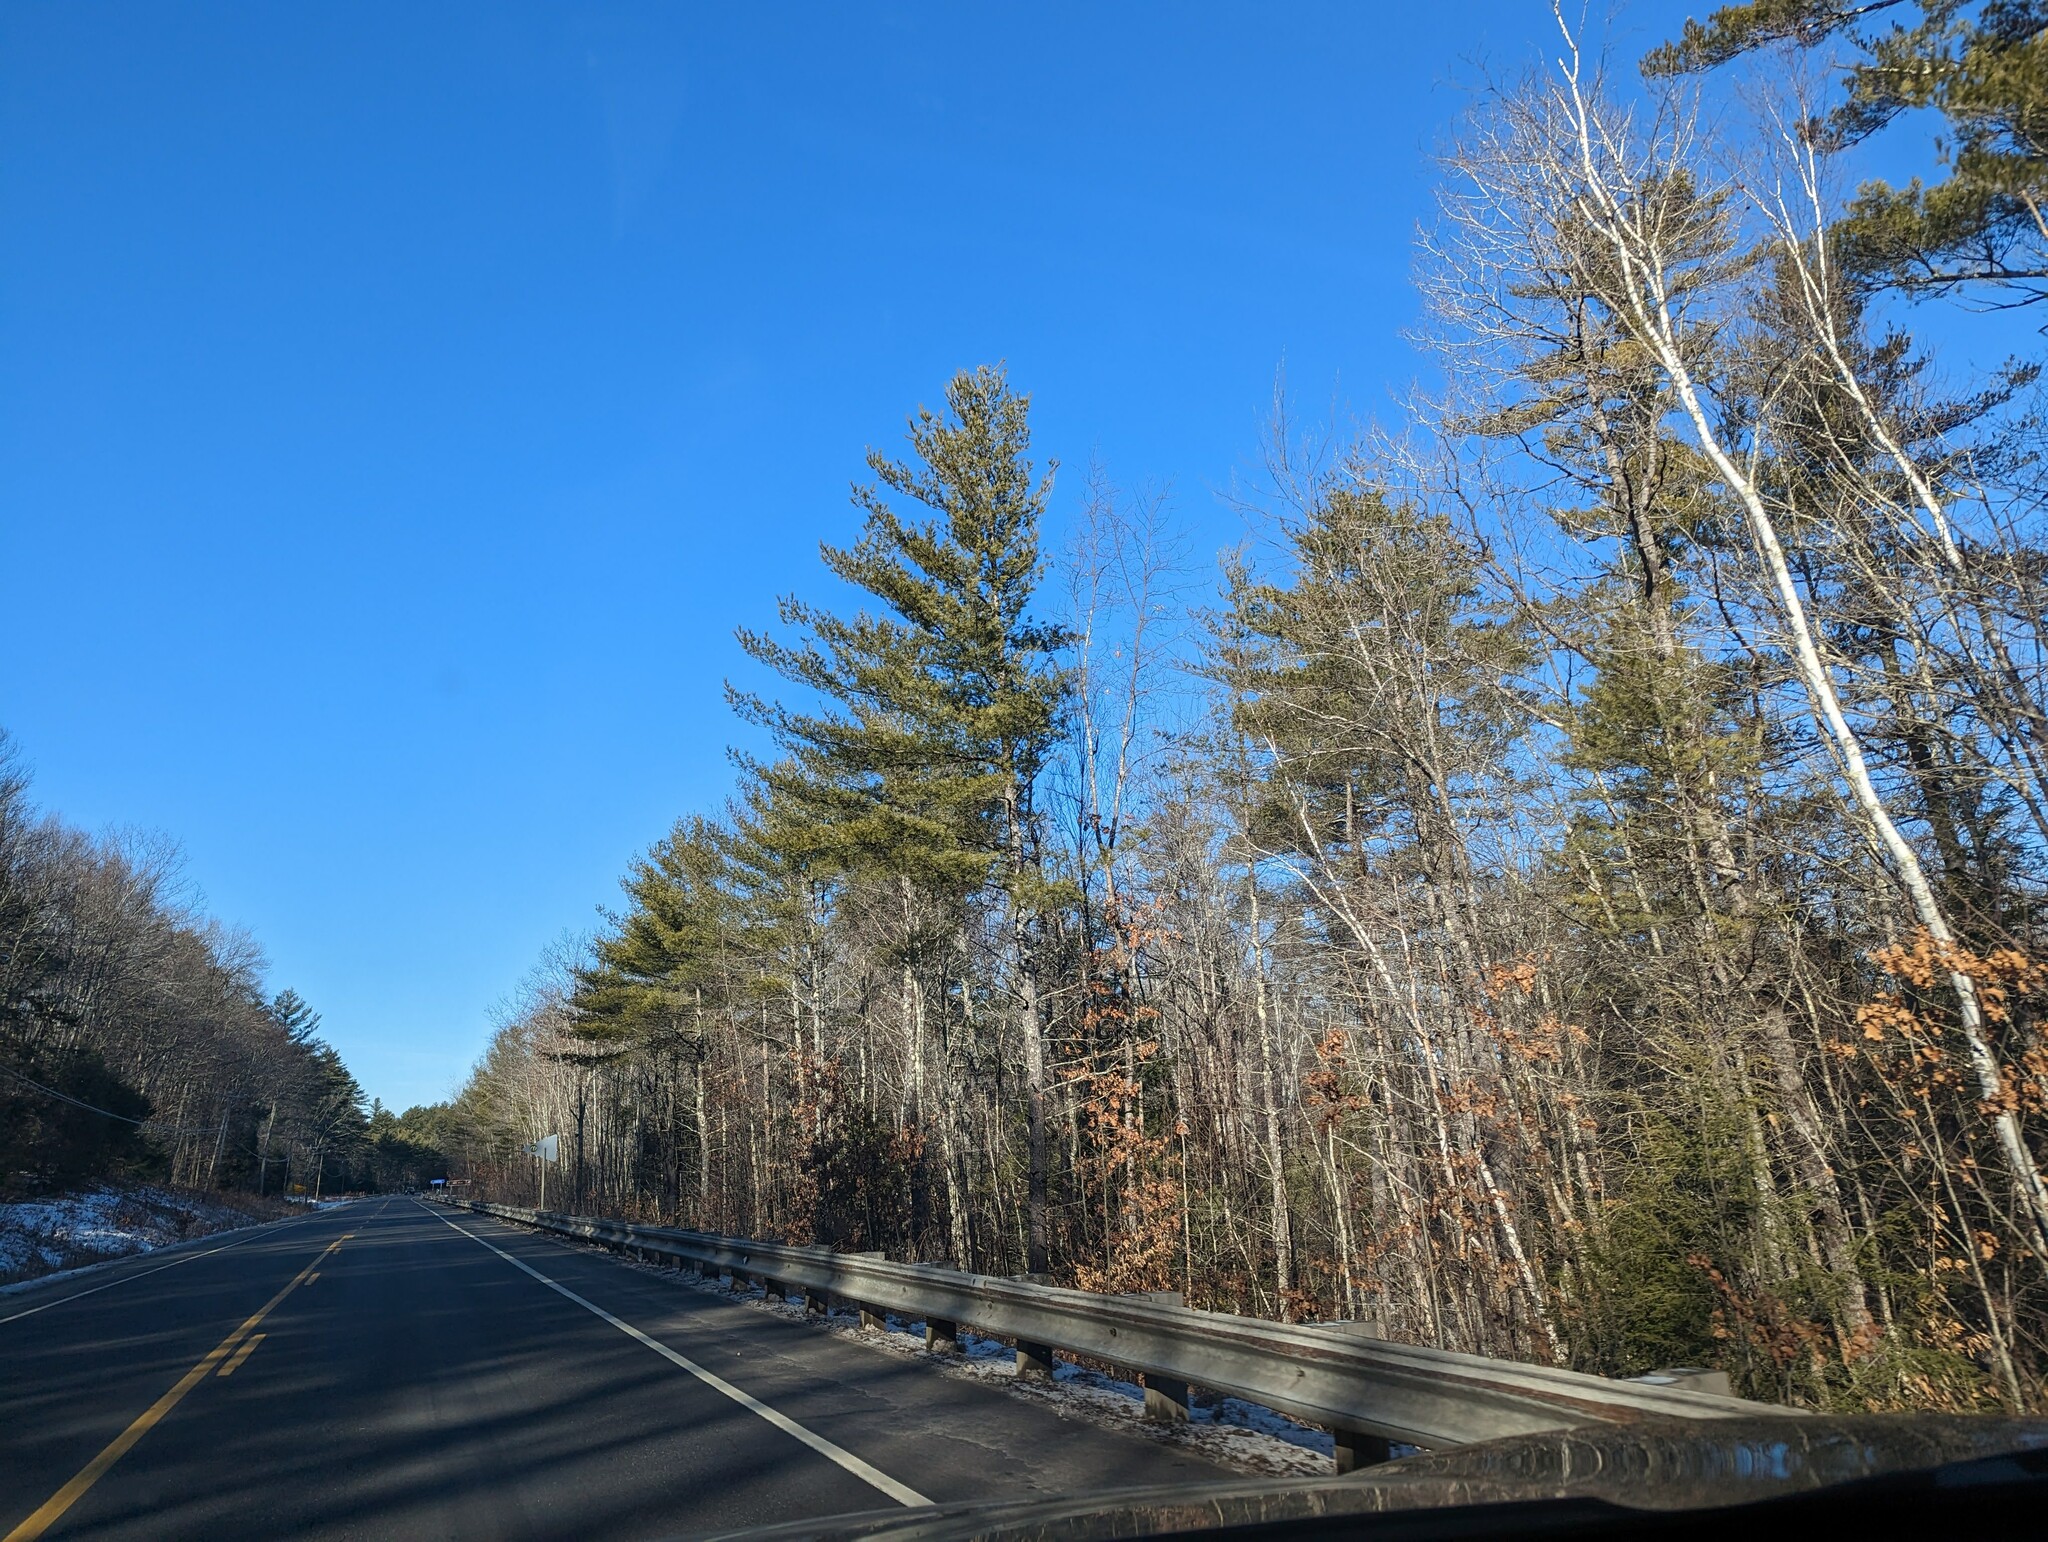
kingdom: Plantae
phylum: Tracheophyta
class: Pinopsida
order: Pinales
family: Pinaceae
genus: Pinus
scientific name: Pinus strobus
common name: Weymouth pine
